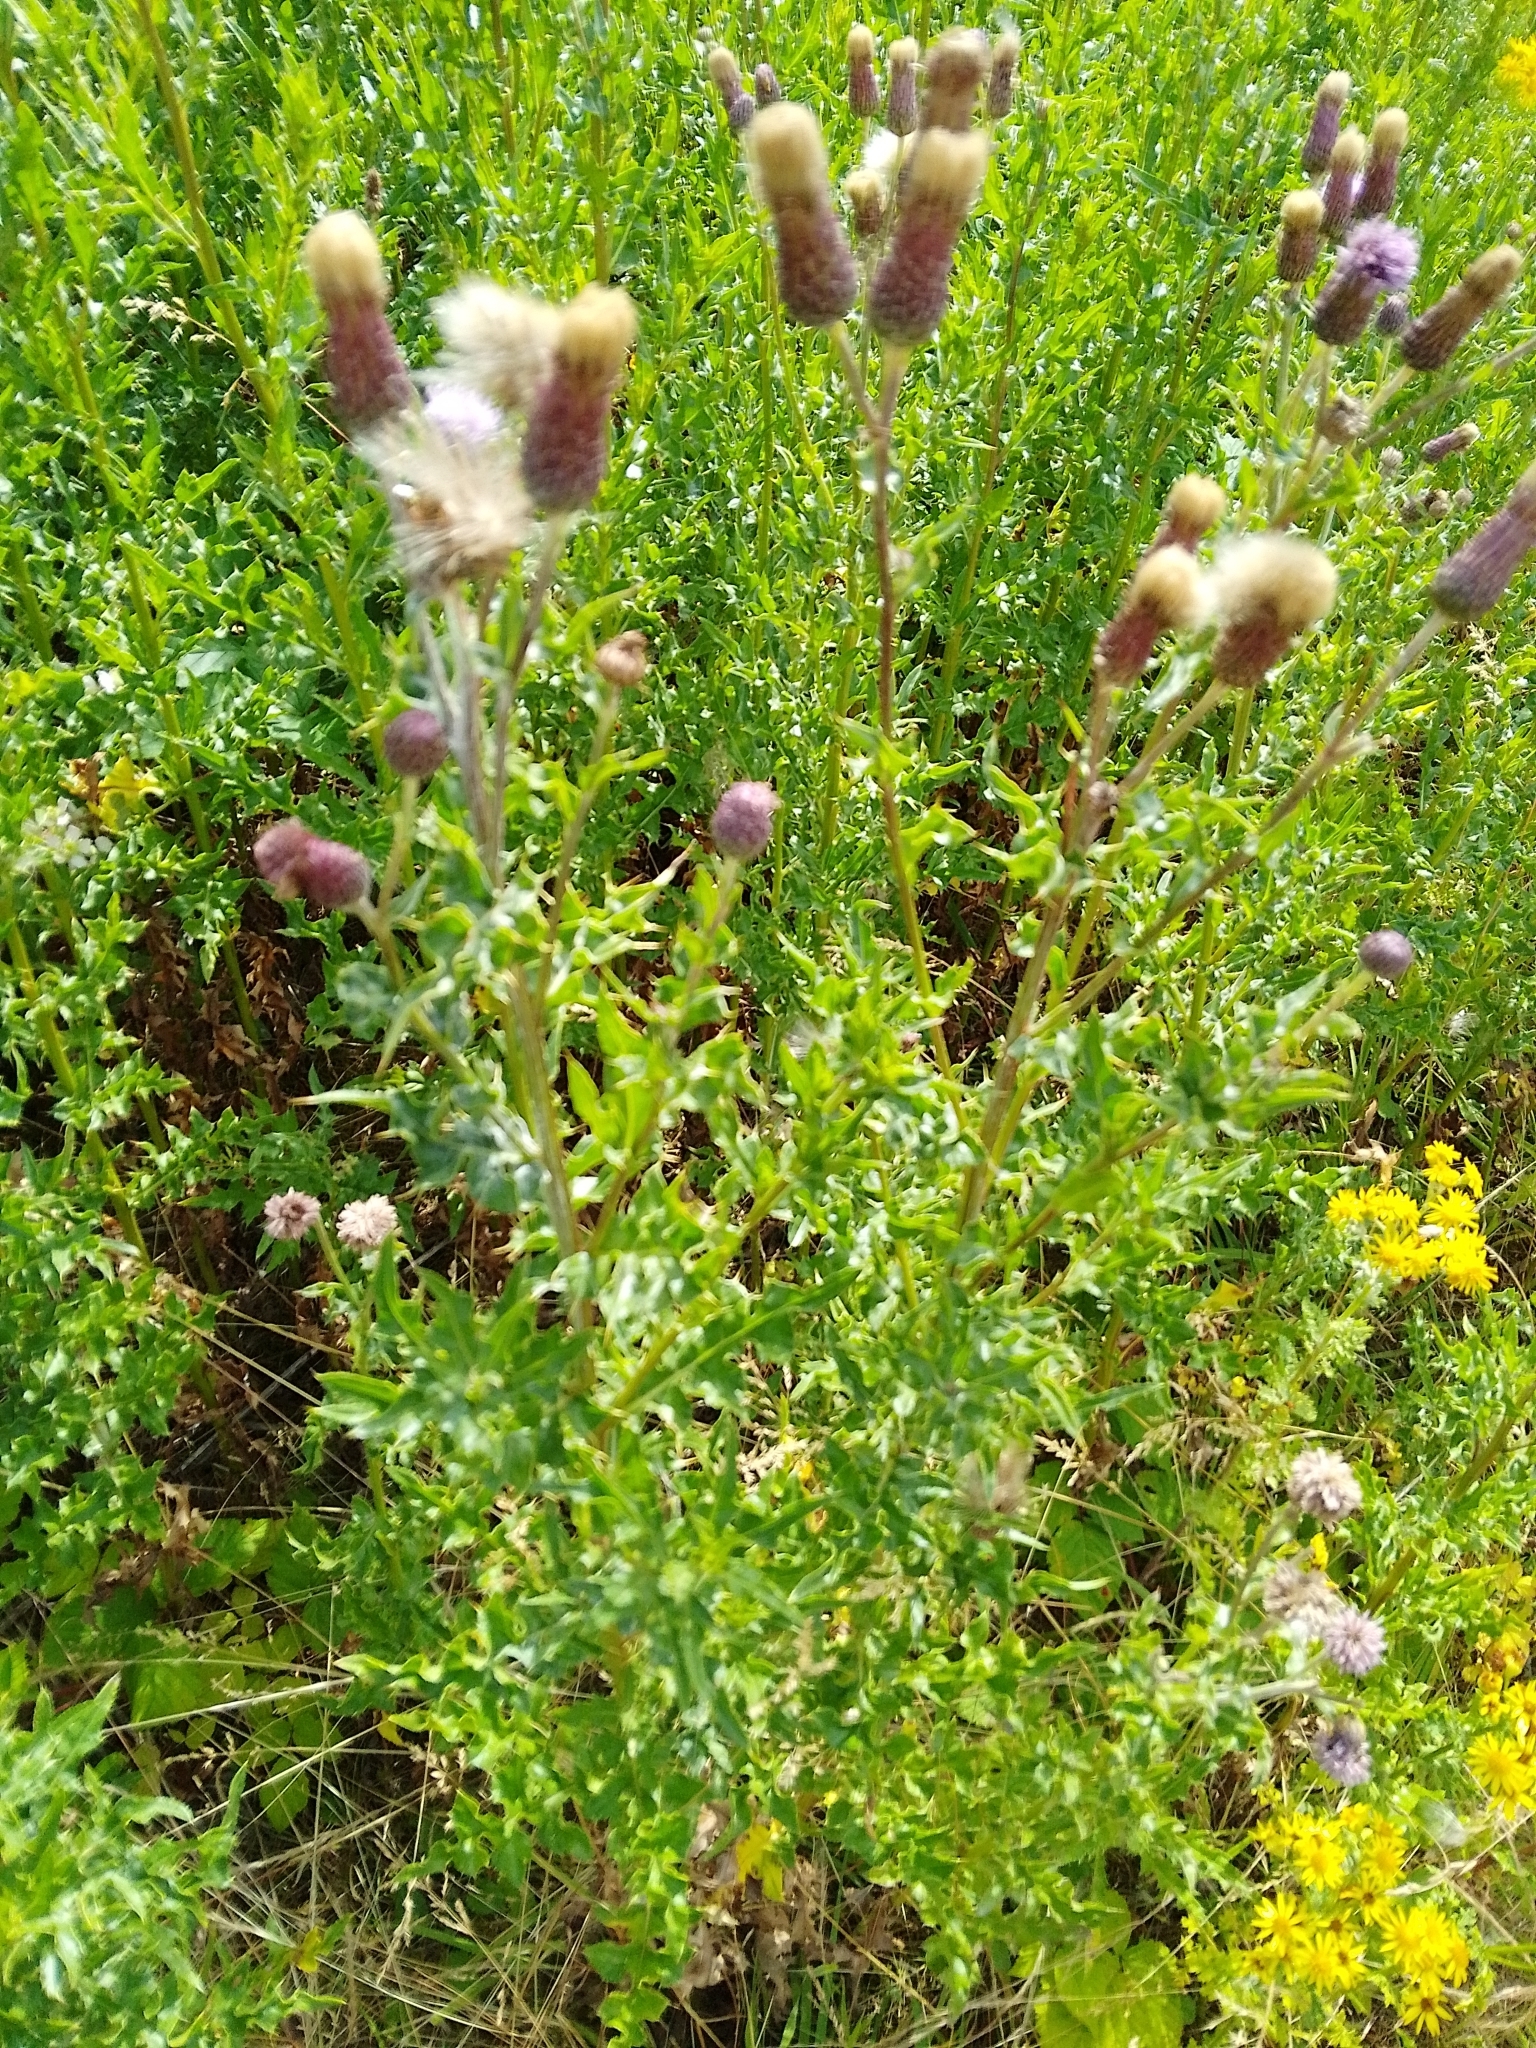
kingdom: Plantae
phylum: Tracheophyta
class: Magnoliopsida
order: Asterales
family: Asteraceae
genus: Cirsium
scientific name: Cirsium arvense
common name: Creeping thistle
